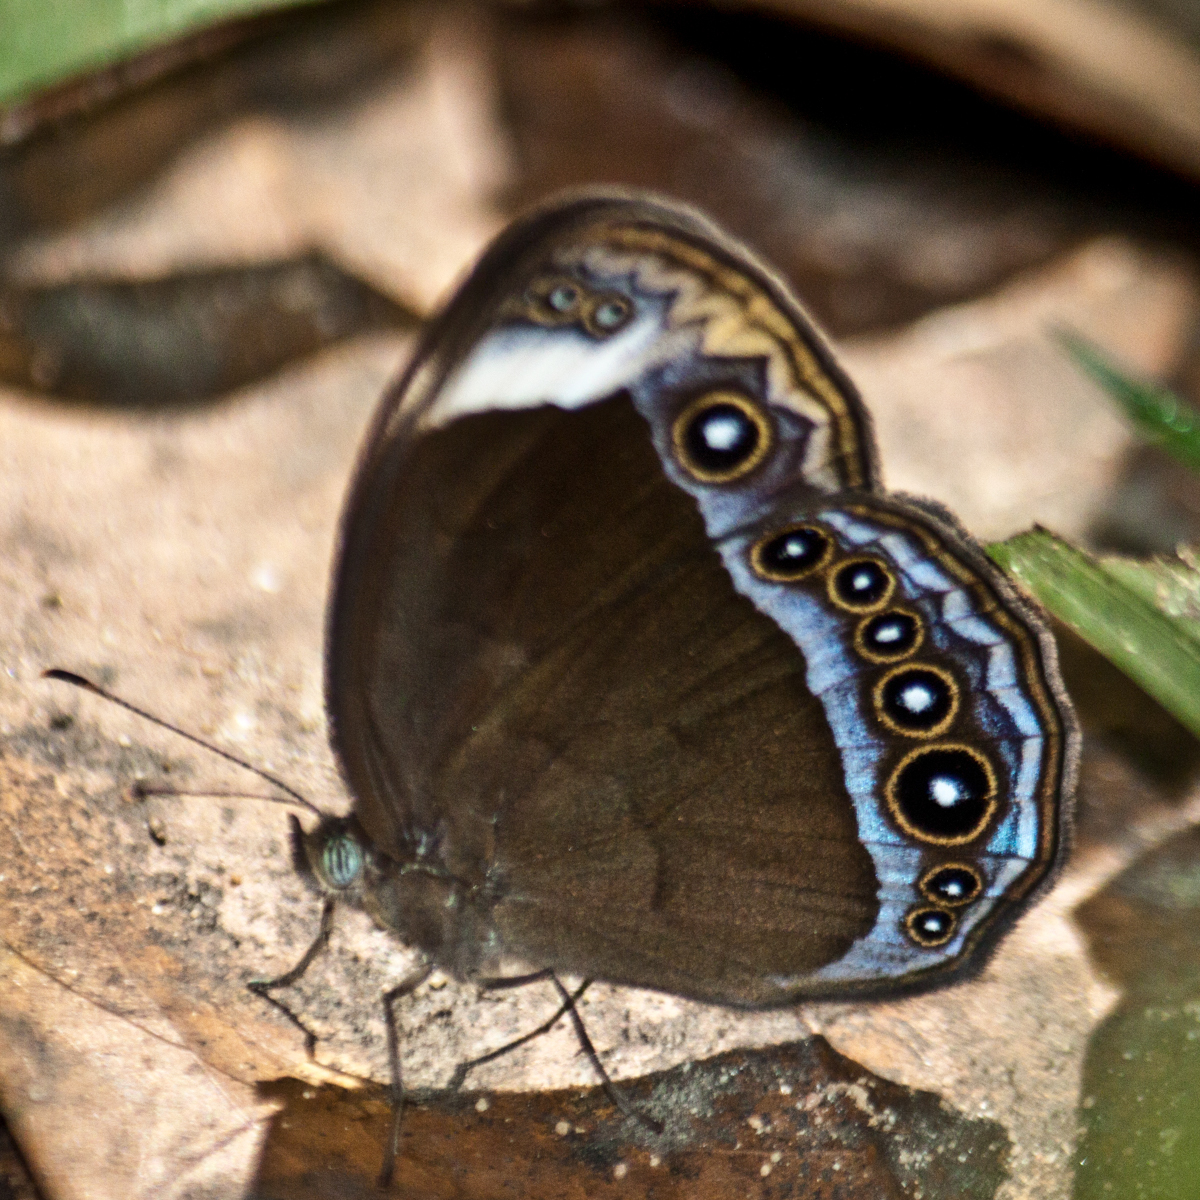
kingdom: Animalia
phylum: Arthropoda
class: Insecta
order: Lepidoptera
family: Nymphalidae
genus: Mycalesis
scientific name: Mycalesis anaxioides
